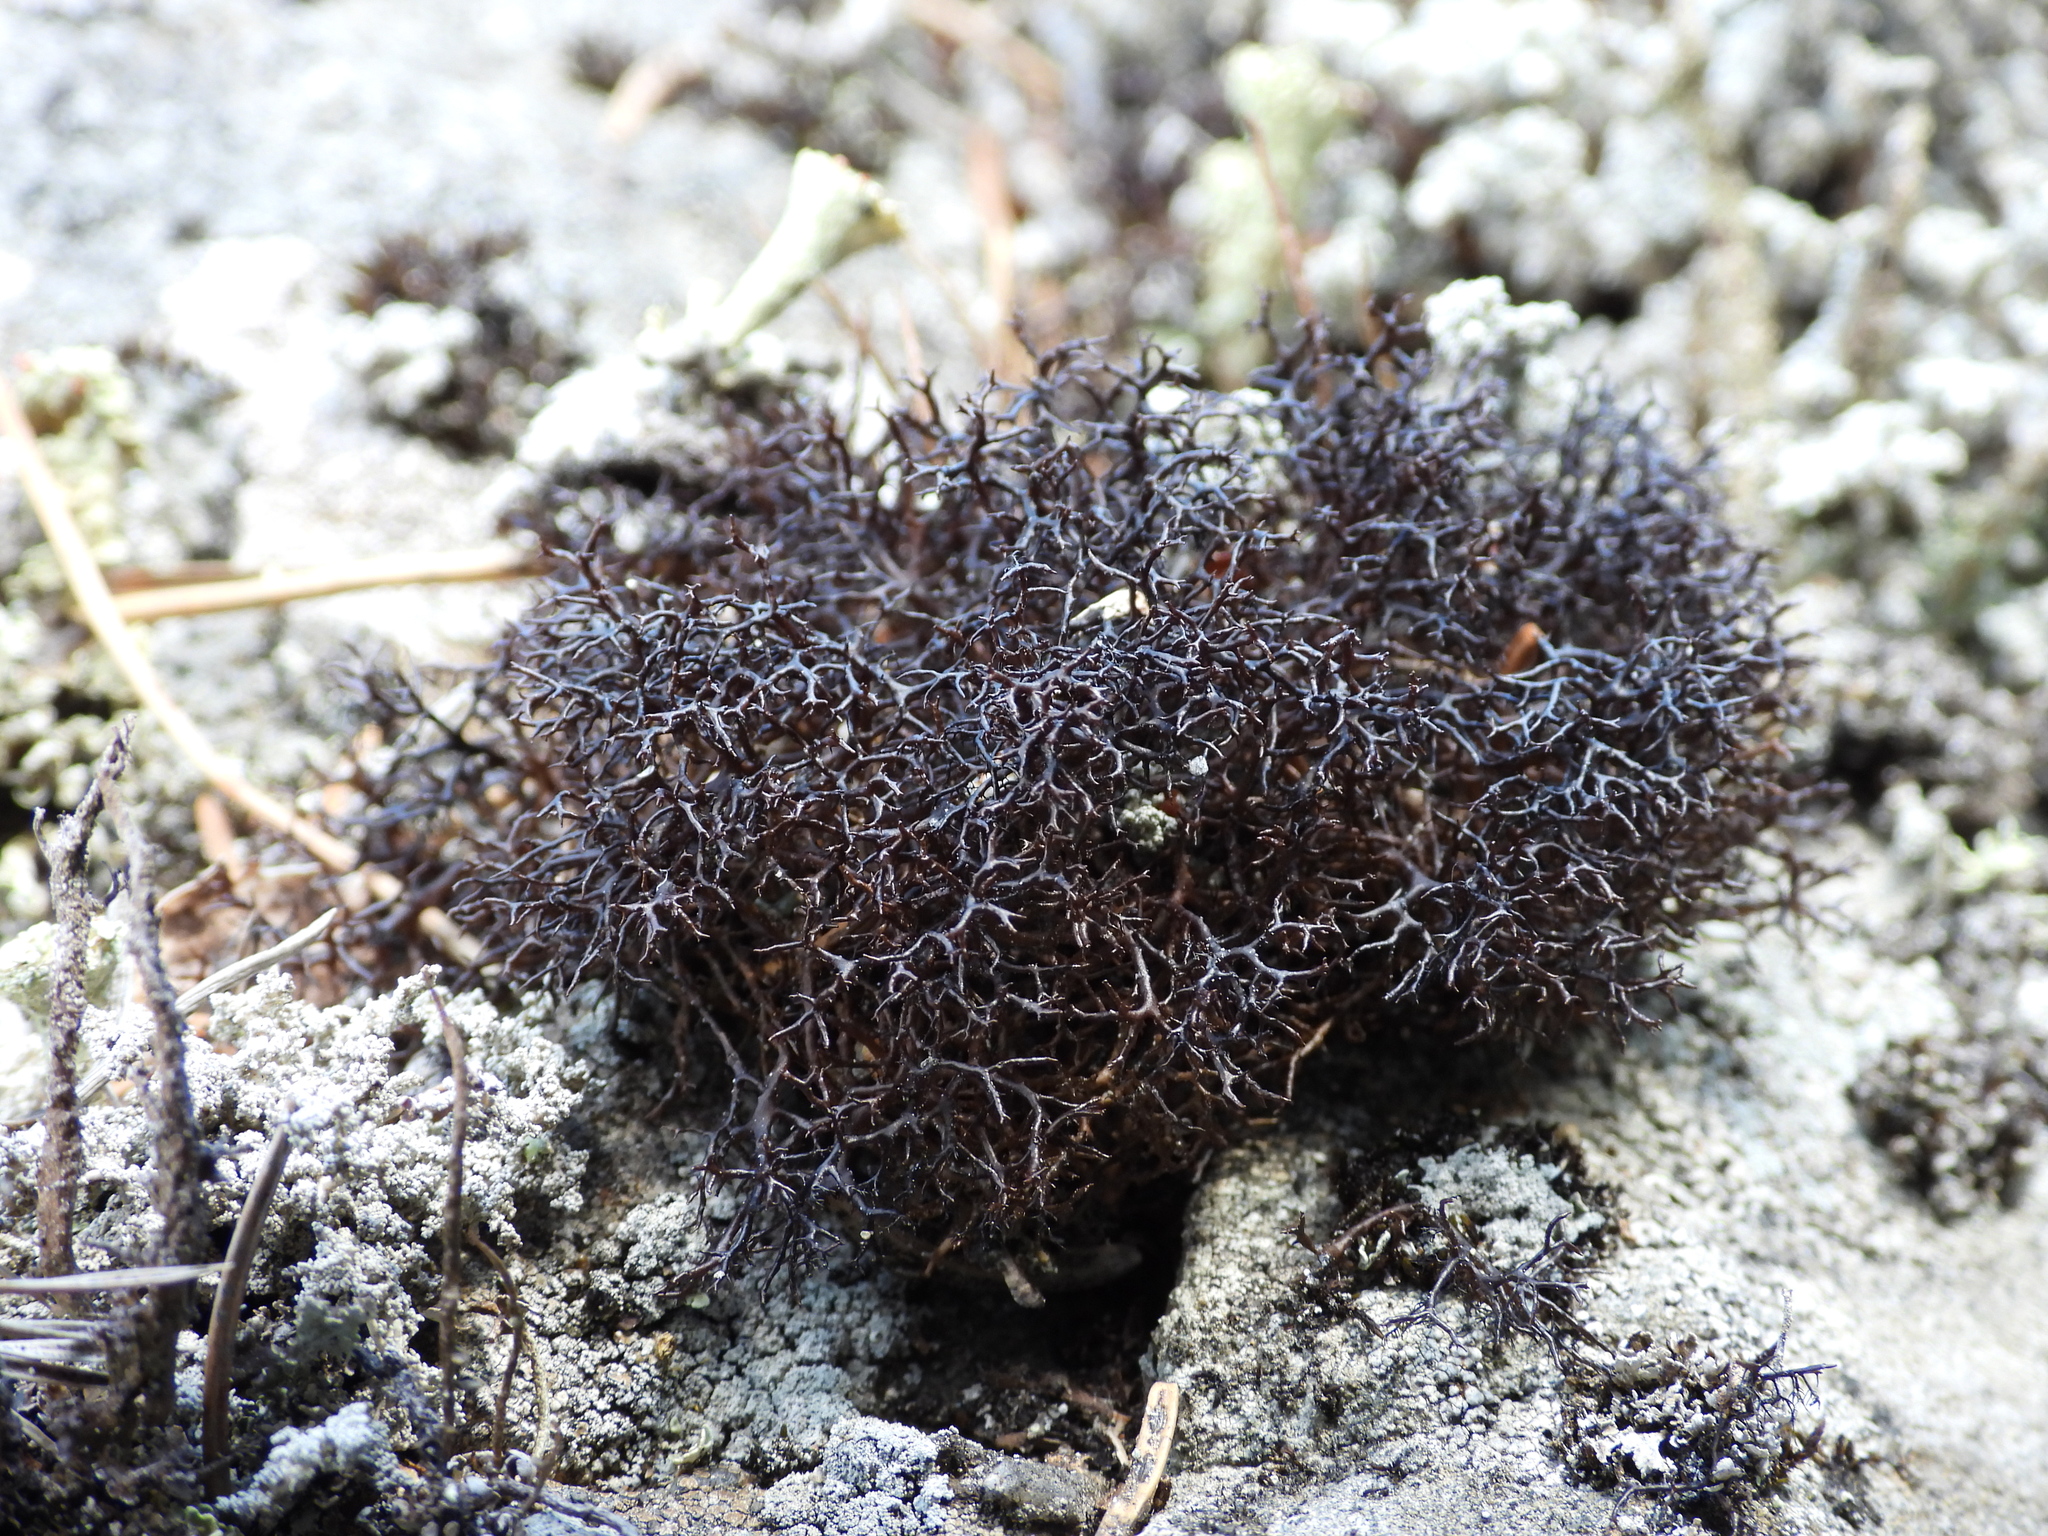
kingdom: Fungi
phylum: Ascomycota
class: Lecanoromycetes
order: Lecanorales
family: Parmeliaceae
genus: Cetraria
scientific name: Cetraria muricata
